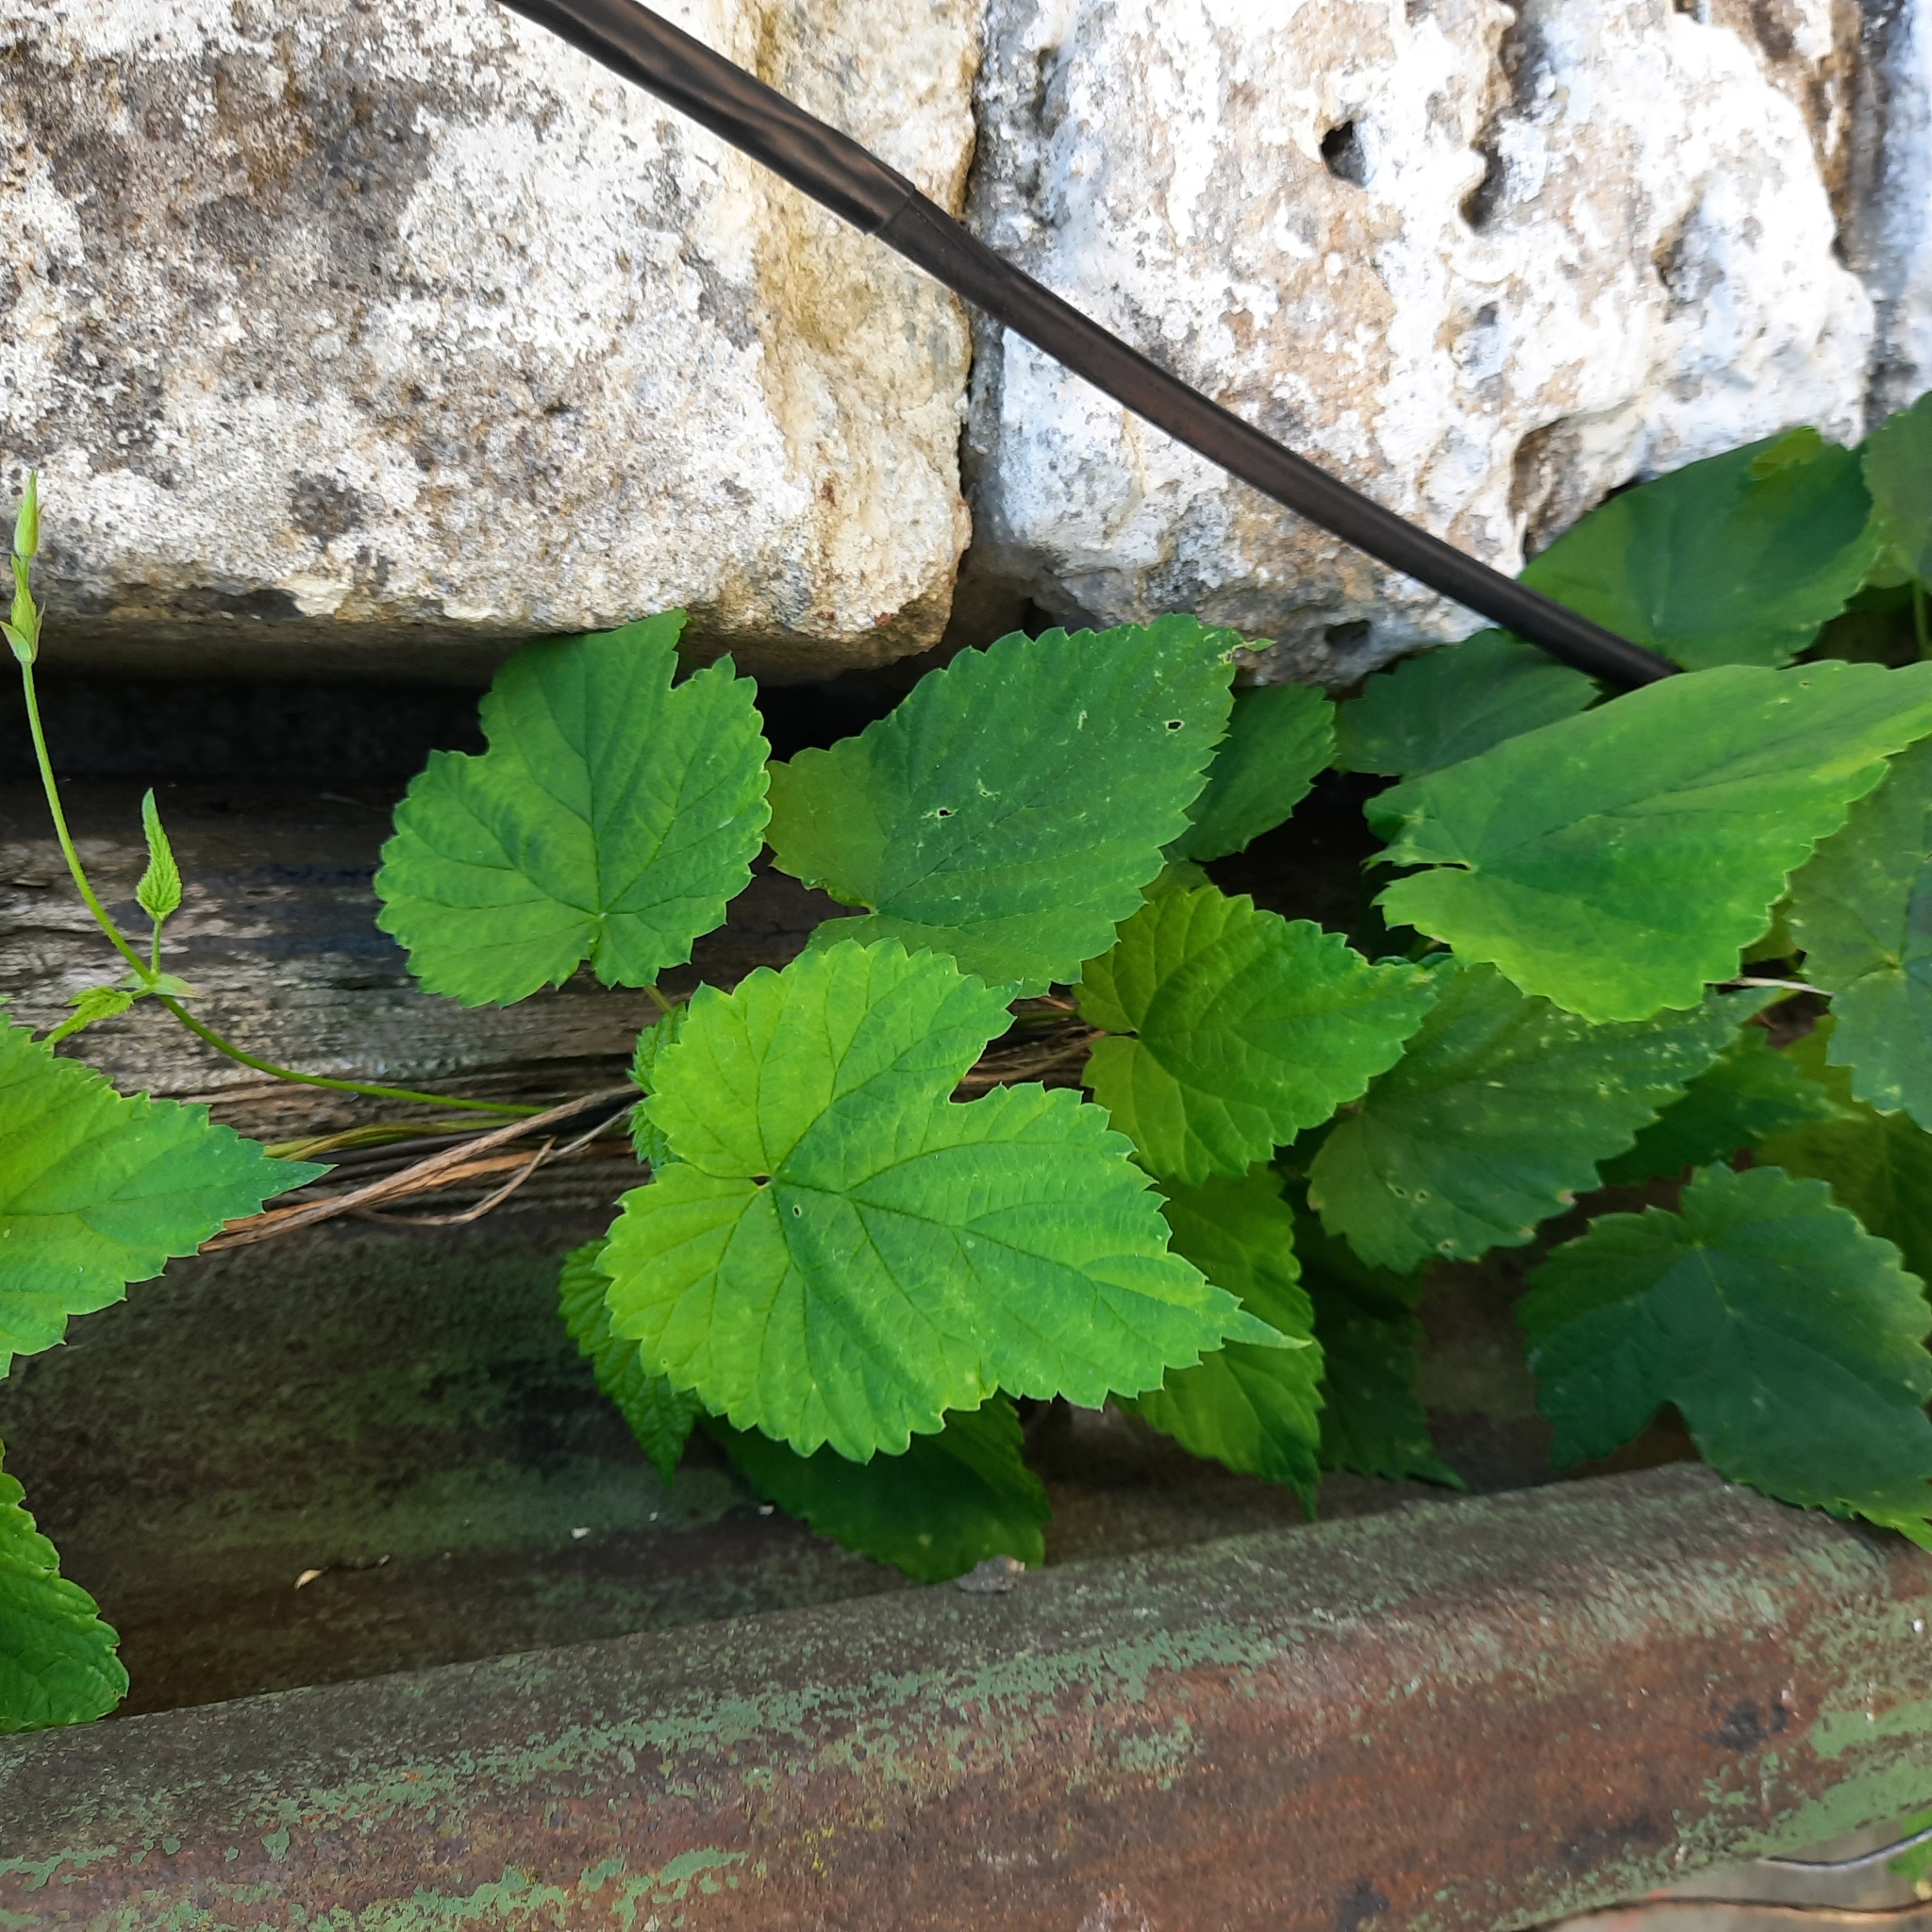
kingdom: Plantae
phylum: Tracheophyta
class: Magnoliopsida
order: Rosales
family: Cannabaceae
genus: Humulus
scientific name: Humulus lupulus
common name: Hop
